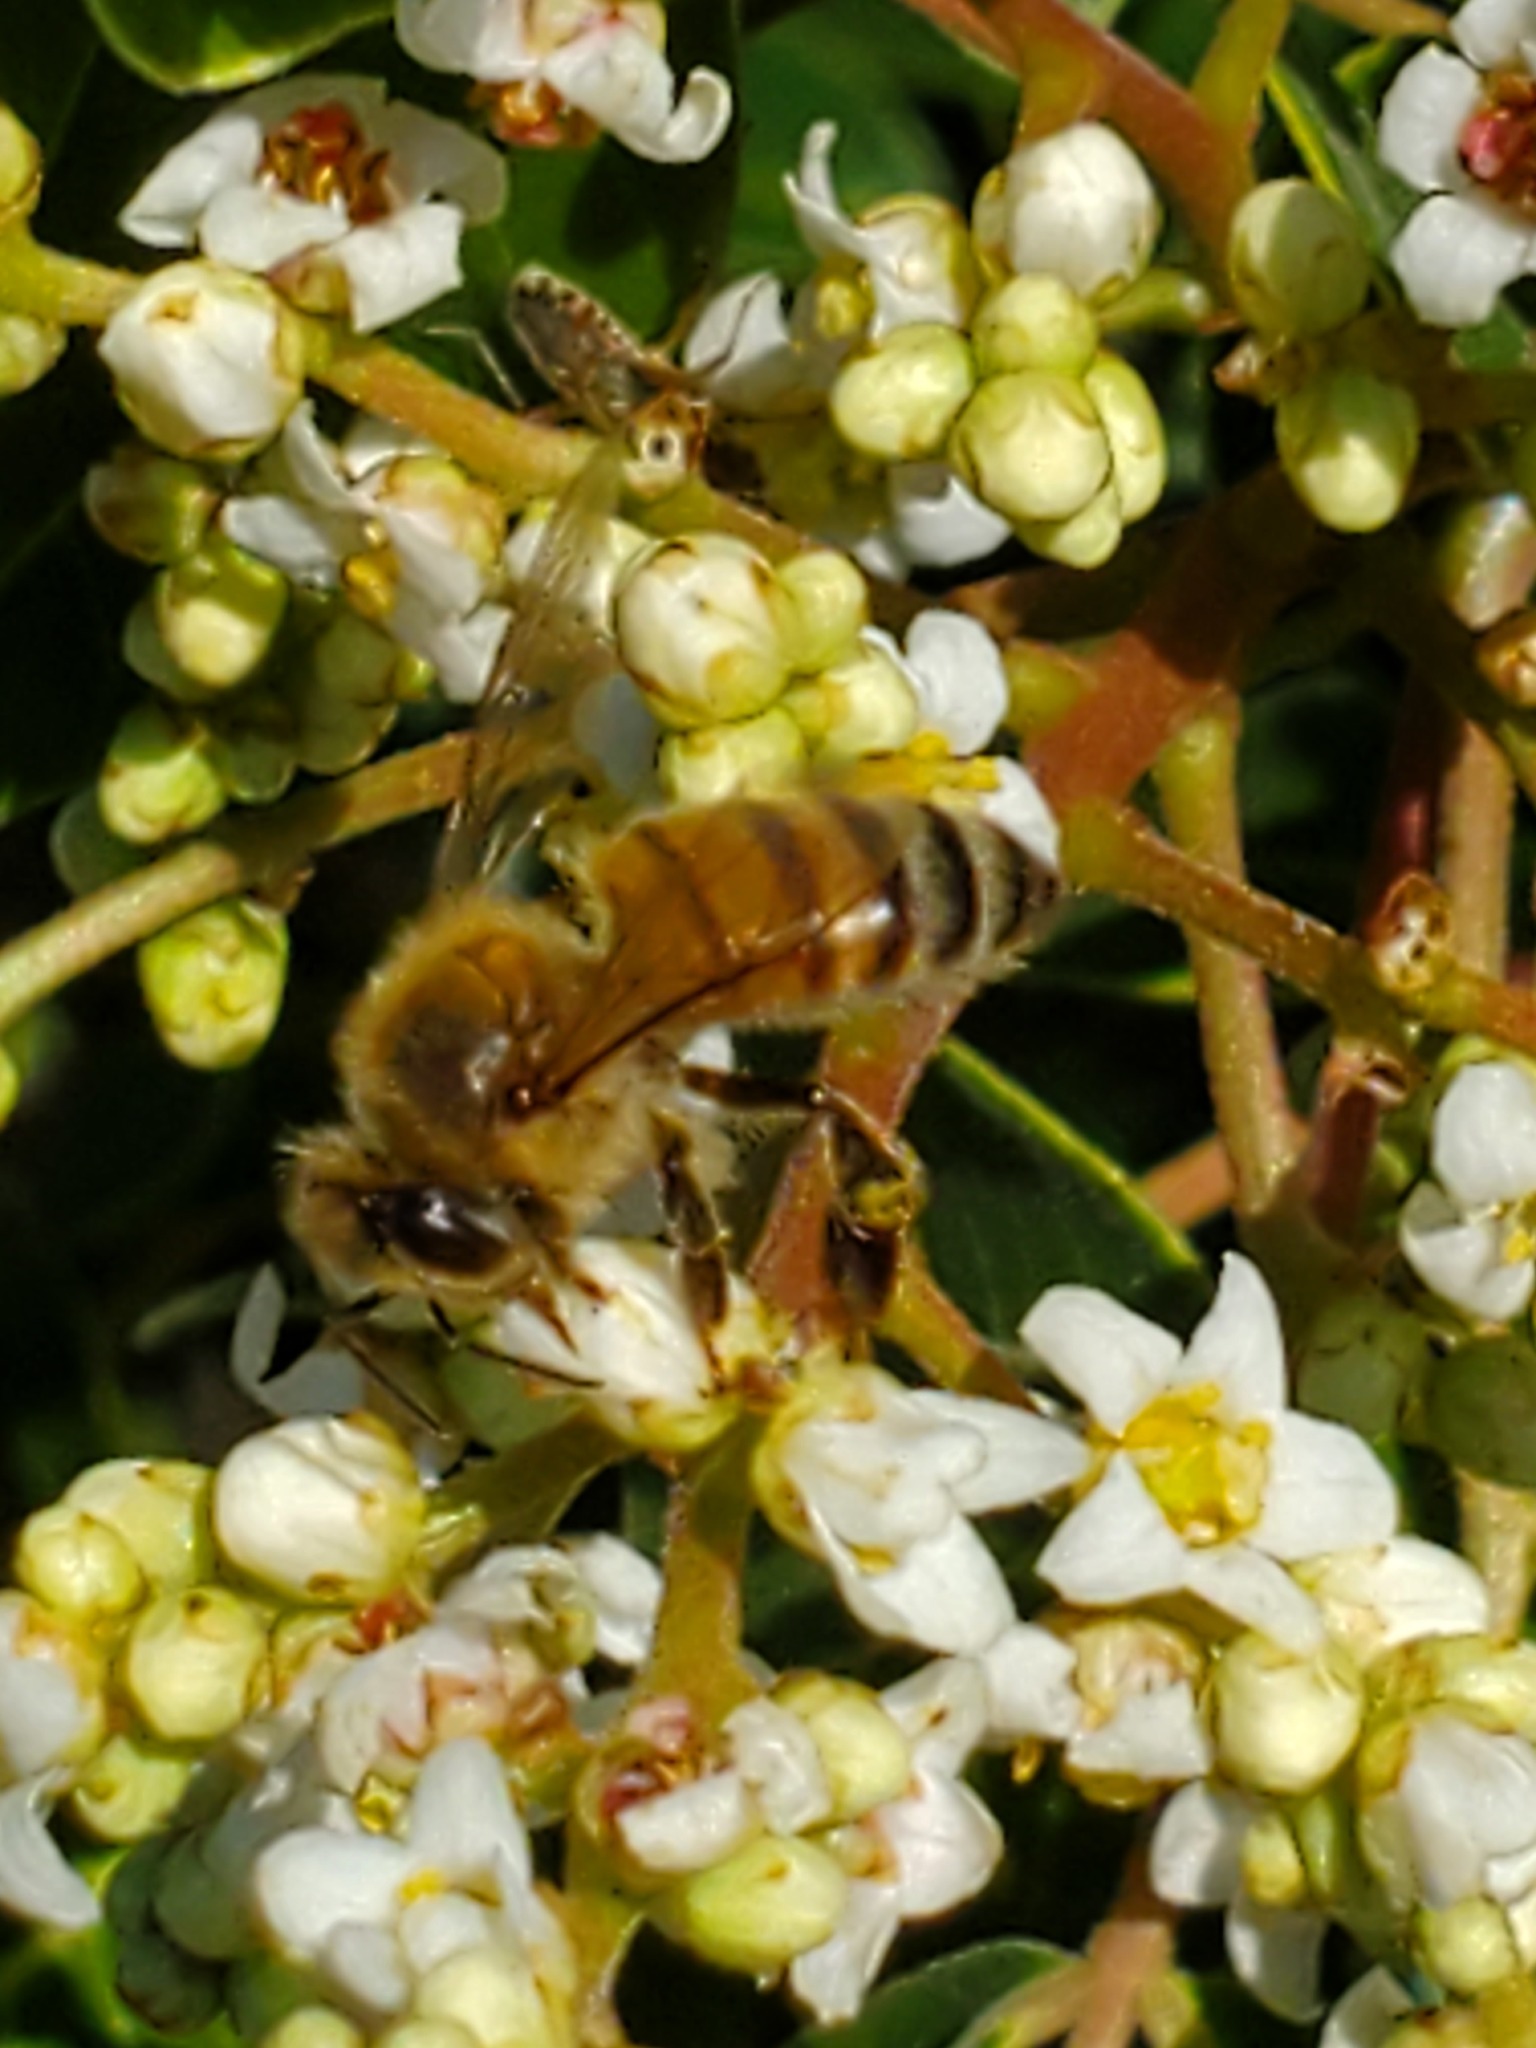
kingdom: Animalia
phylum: Arthropoda
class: Insecta
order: Hymenoptera
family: Apidae
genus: Apis
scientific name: Apis mellifera
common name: Honey bee
